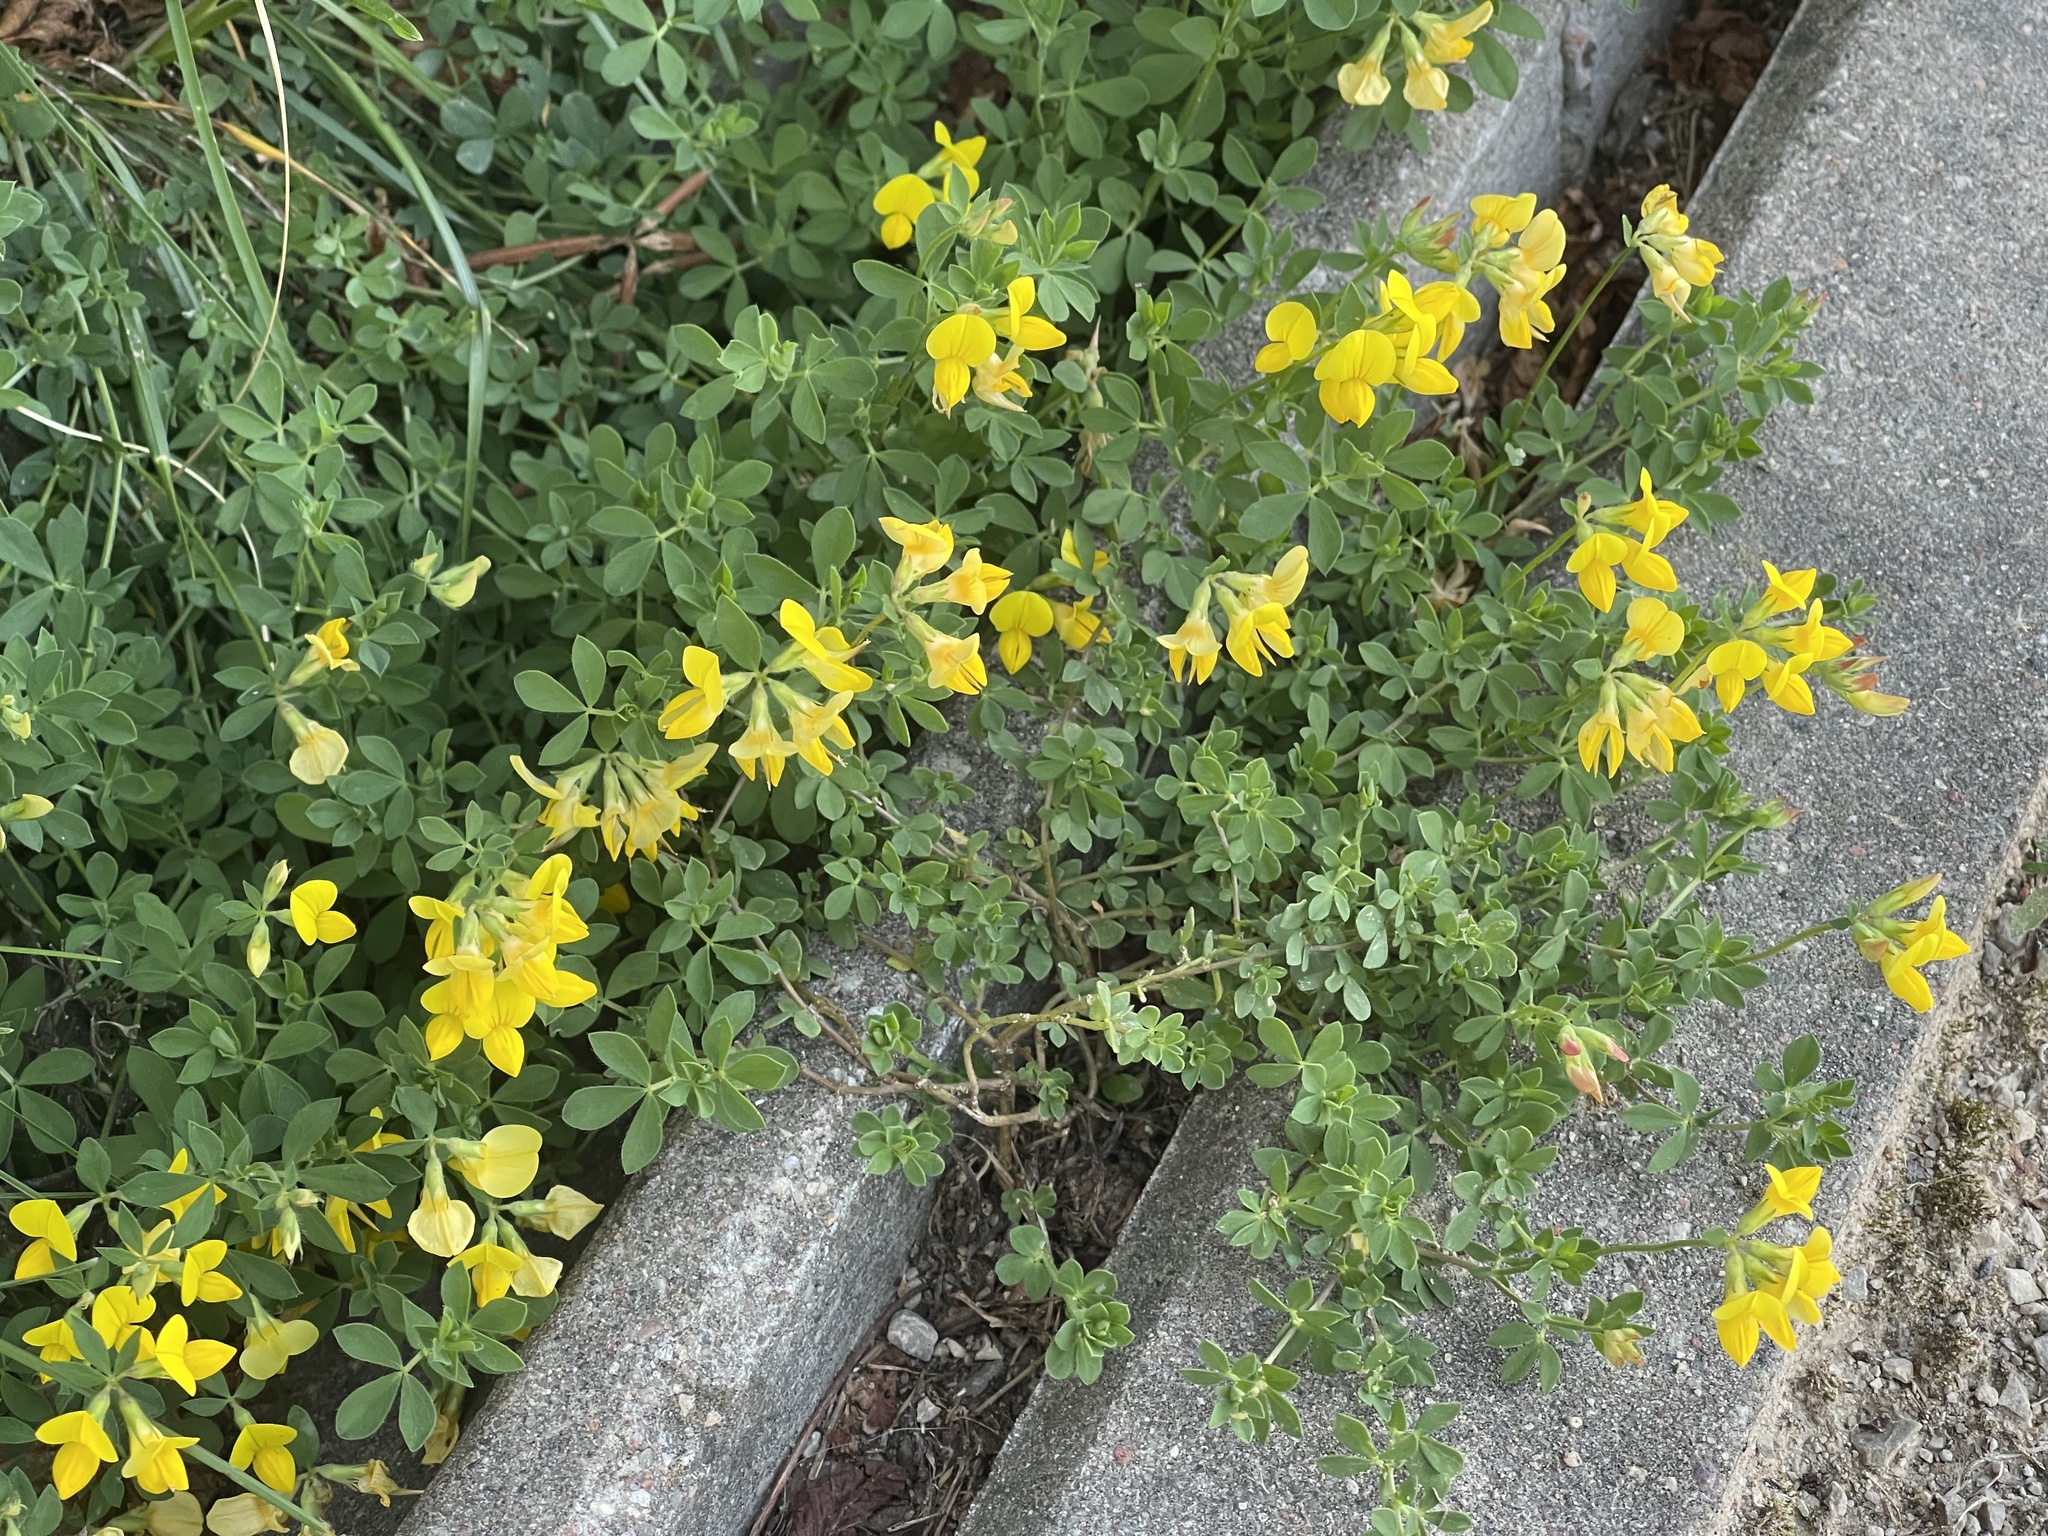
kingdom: Plantae
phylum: Tracheophyta
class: Magnoliopsida
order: Fabales
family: Fabaceae
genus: Lotus
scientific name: Lotus corniculatus
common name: Common bird's-foot-trefoil
